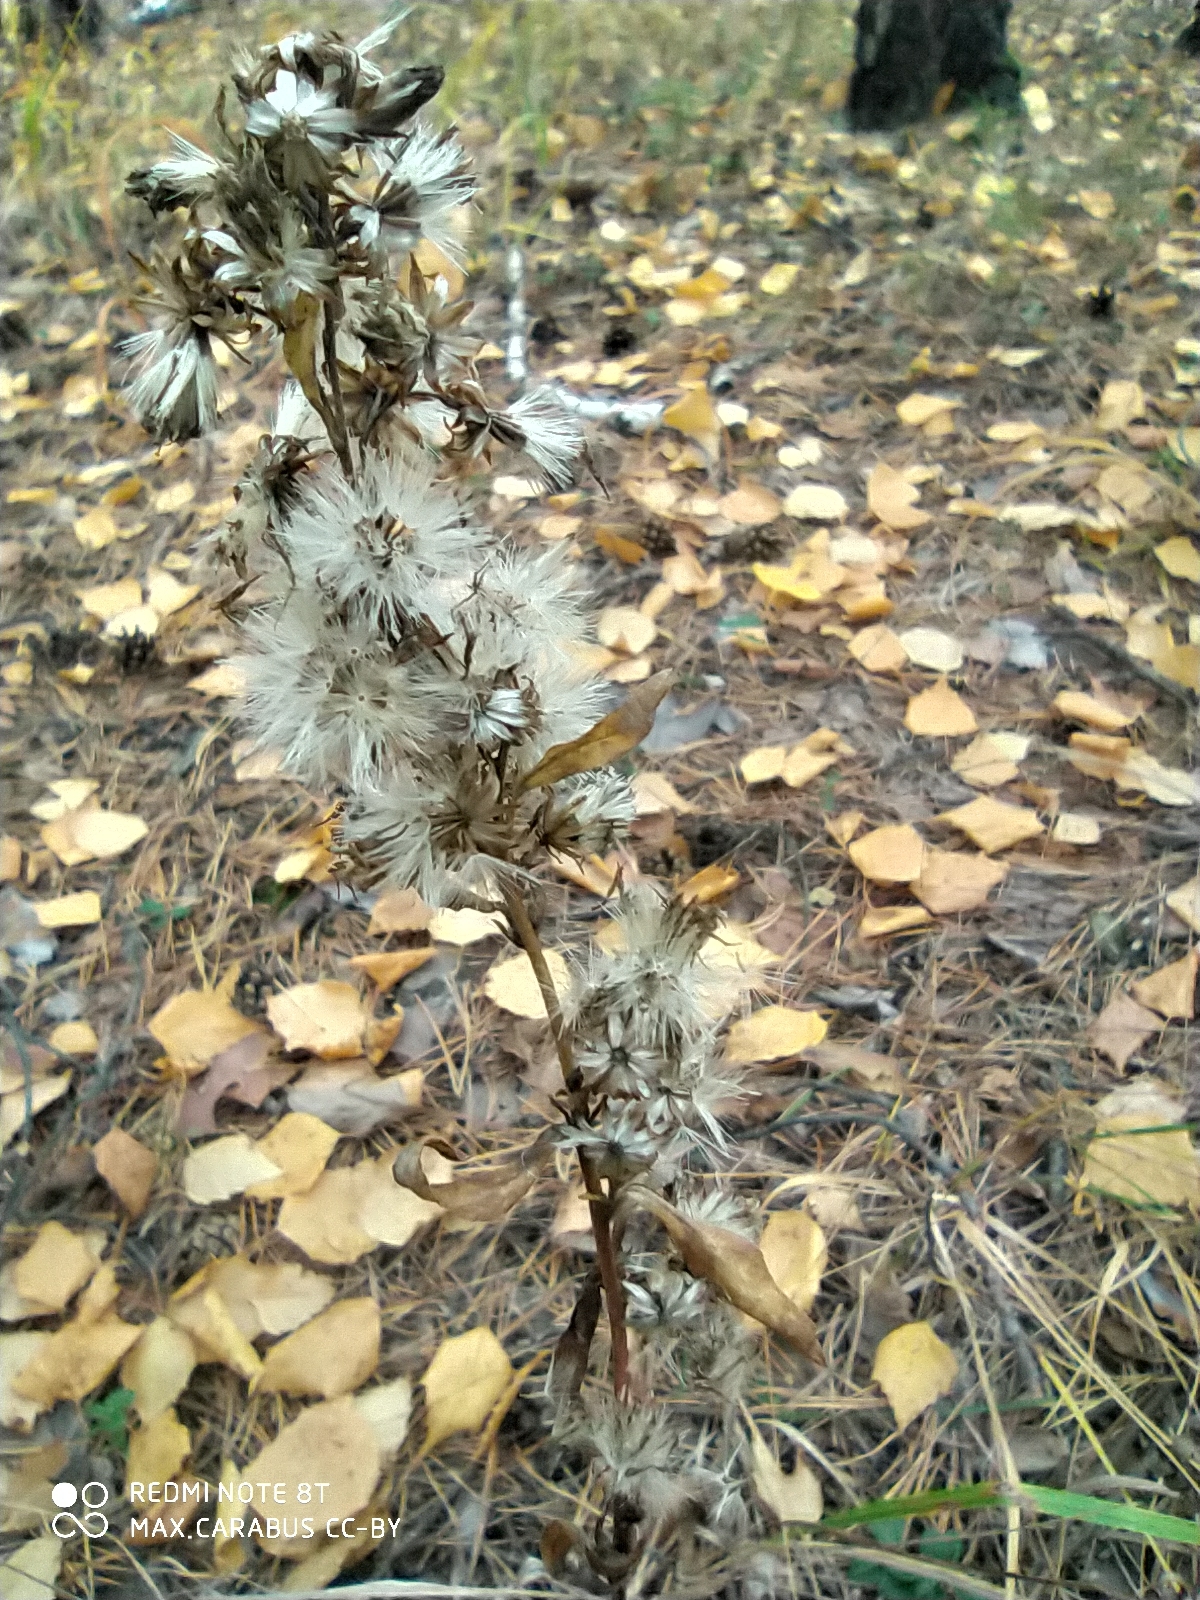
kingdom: Plantae
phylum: Tracheophyta
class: Magnoliopsida
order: Asterales
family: Asteraceae
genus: Solidago
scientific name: Solidago virgaurea
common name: Goldenrod
